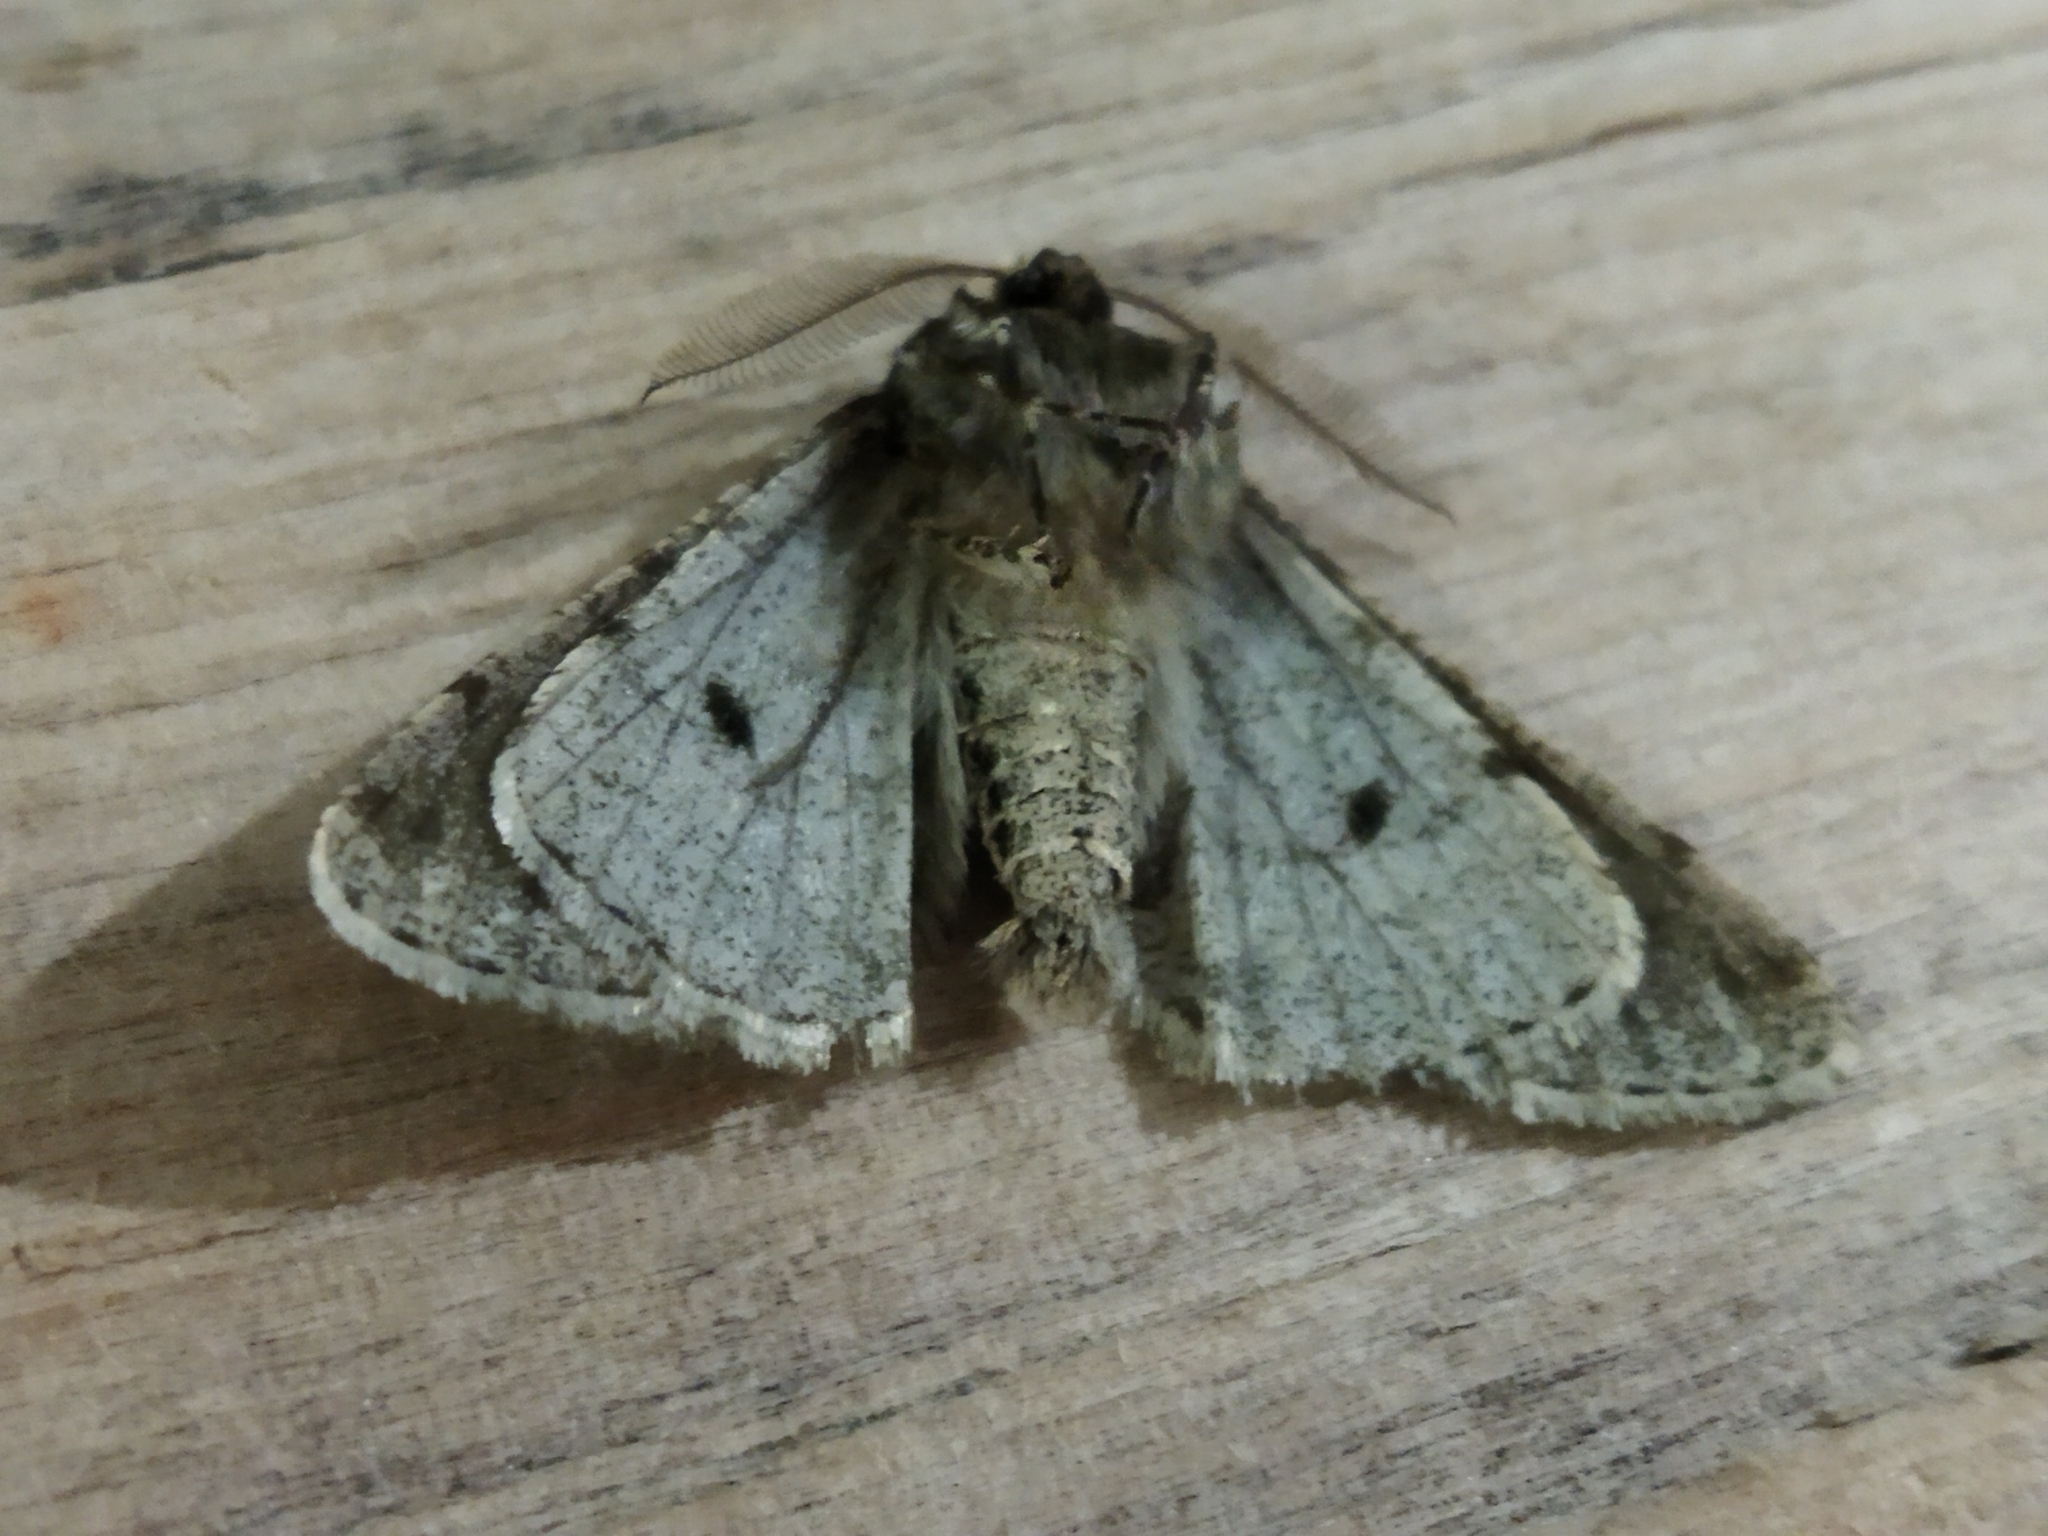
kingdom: Animalia
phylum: Arthropoda
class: Insecta
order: Lepidoptera
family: Geometridae
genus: Phigalia
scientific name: Phigalia pilosaria
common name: Pale brindled beauty
